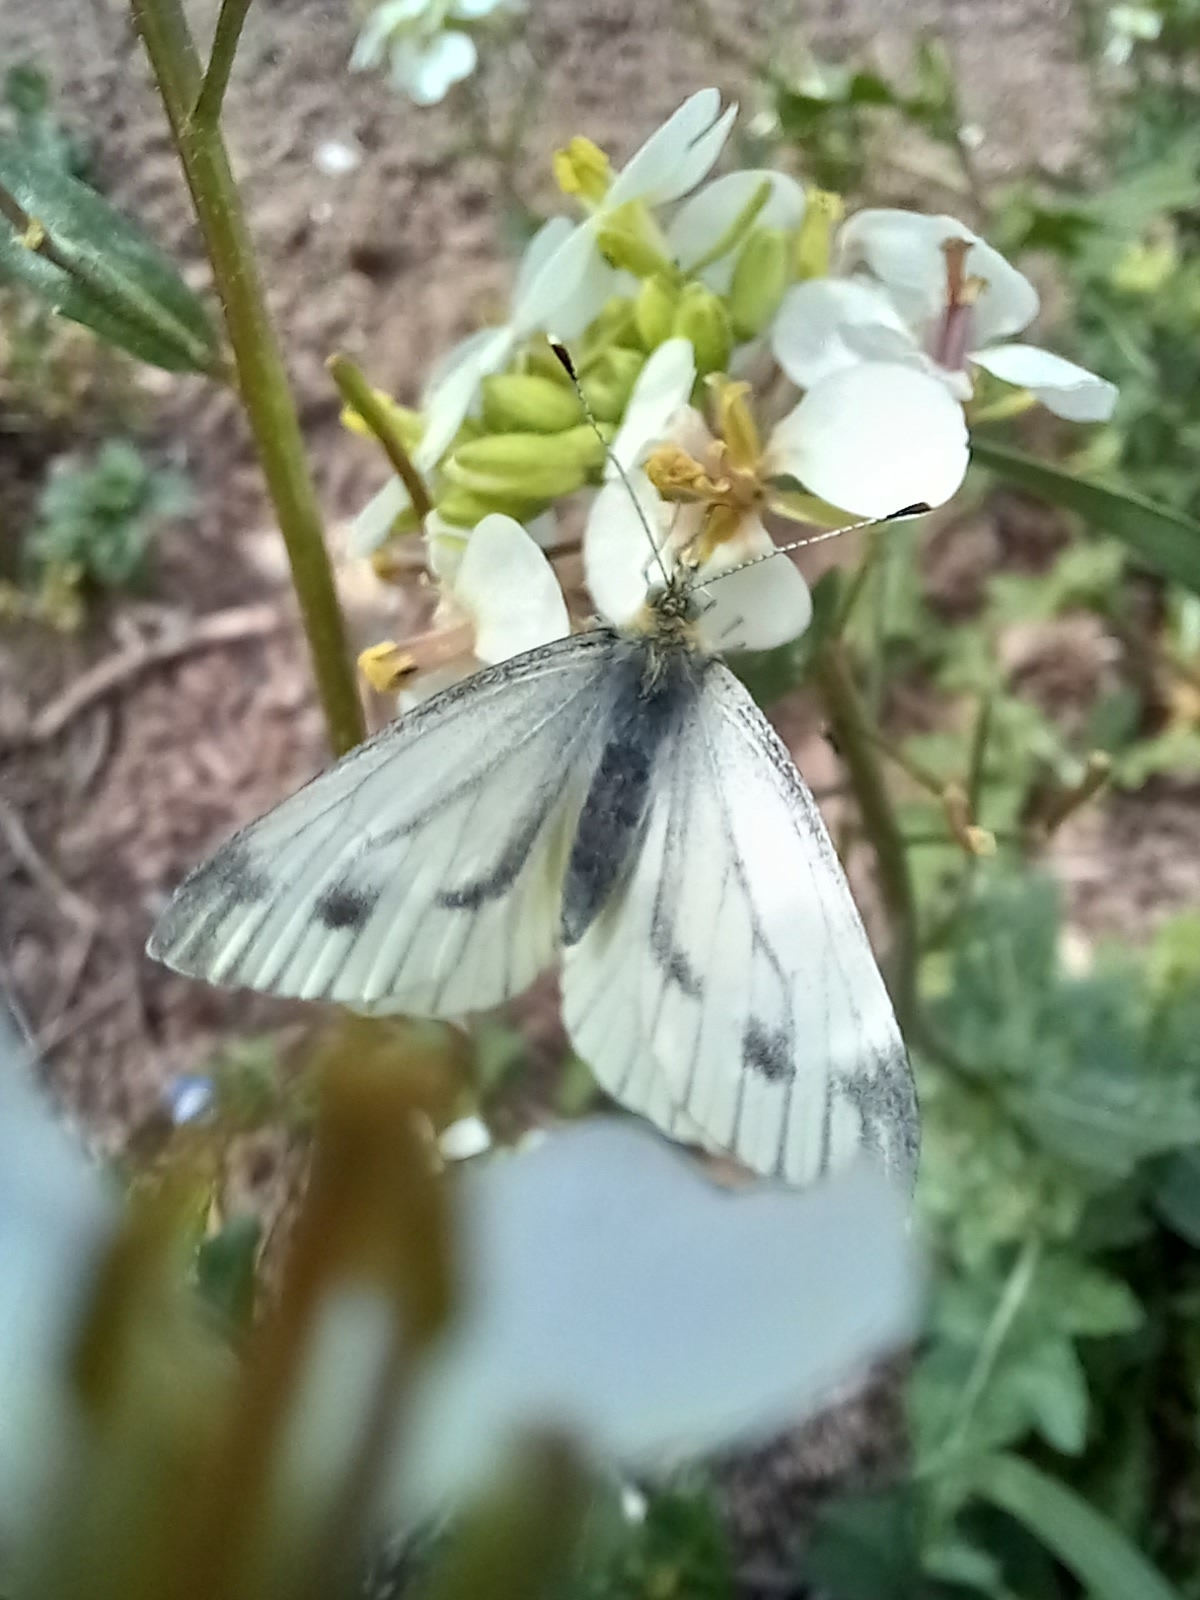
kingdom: Animalia
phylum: Arthropoda
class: Insecta
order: Lepidoptera
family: Pieridae
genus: Pieris
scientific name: Pieris napi
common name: Green-veined white
